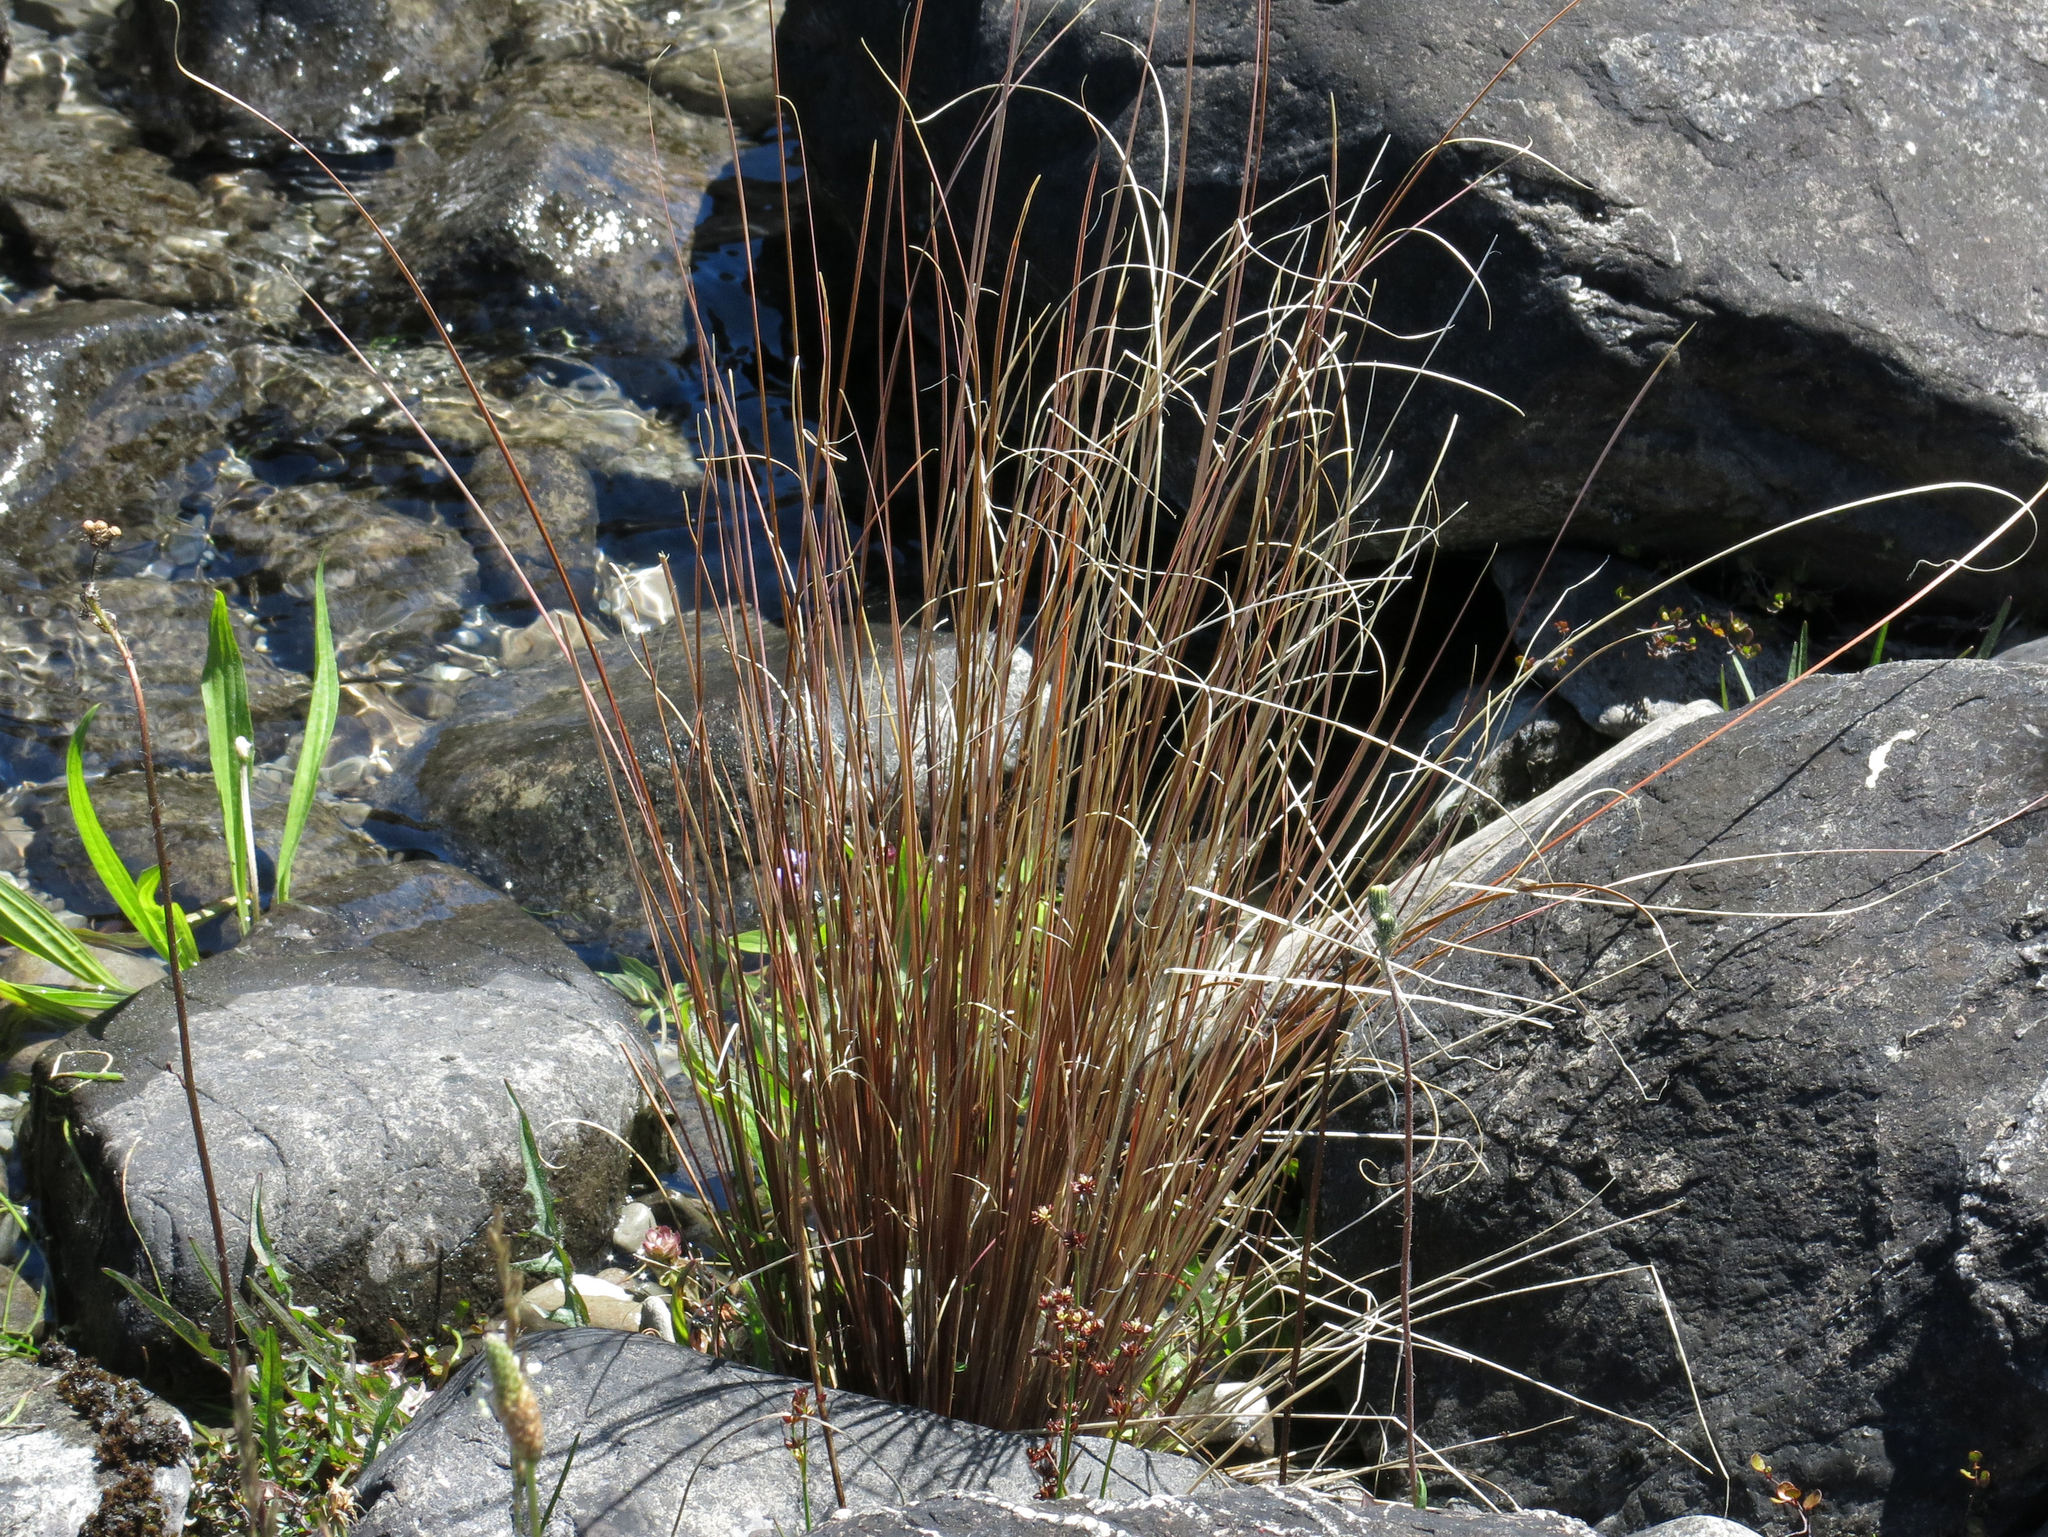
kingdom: Plantae
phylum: Tracheophyta
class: Liliopsida
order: Poales
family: Cyperaceae
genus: Carex
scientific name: Carex buchananii
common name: Leatherleaf sedge
